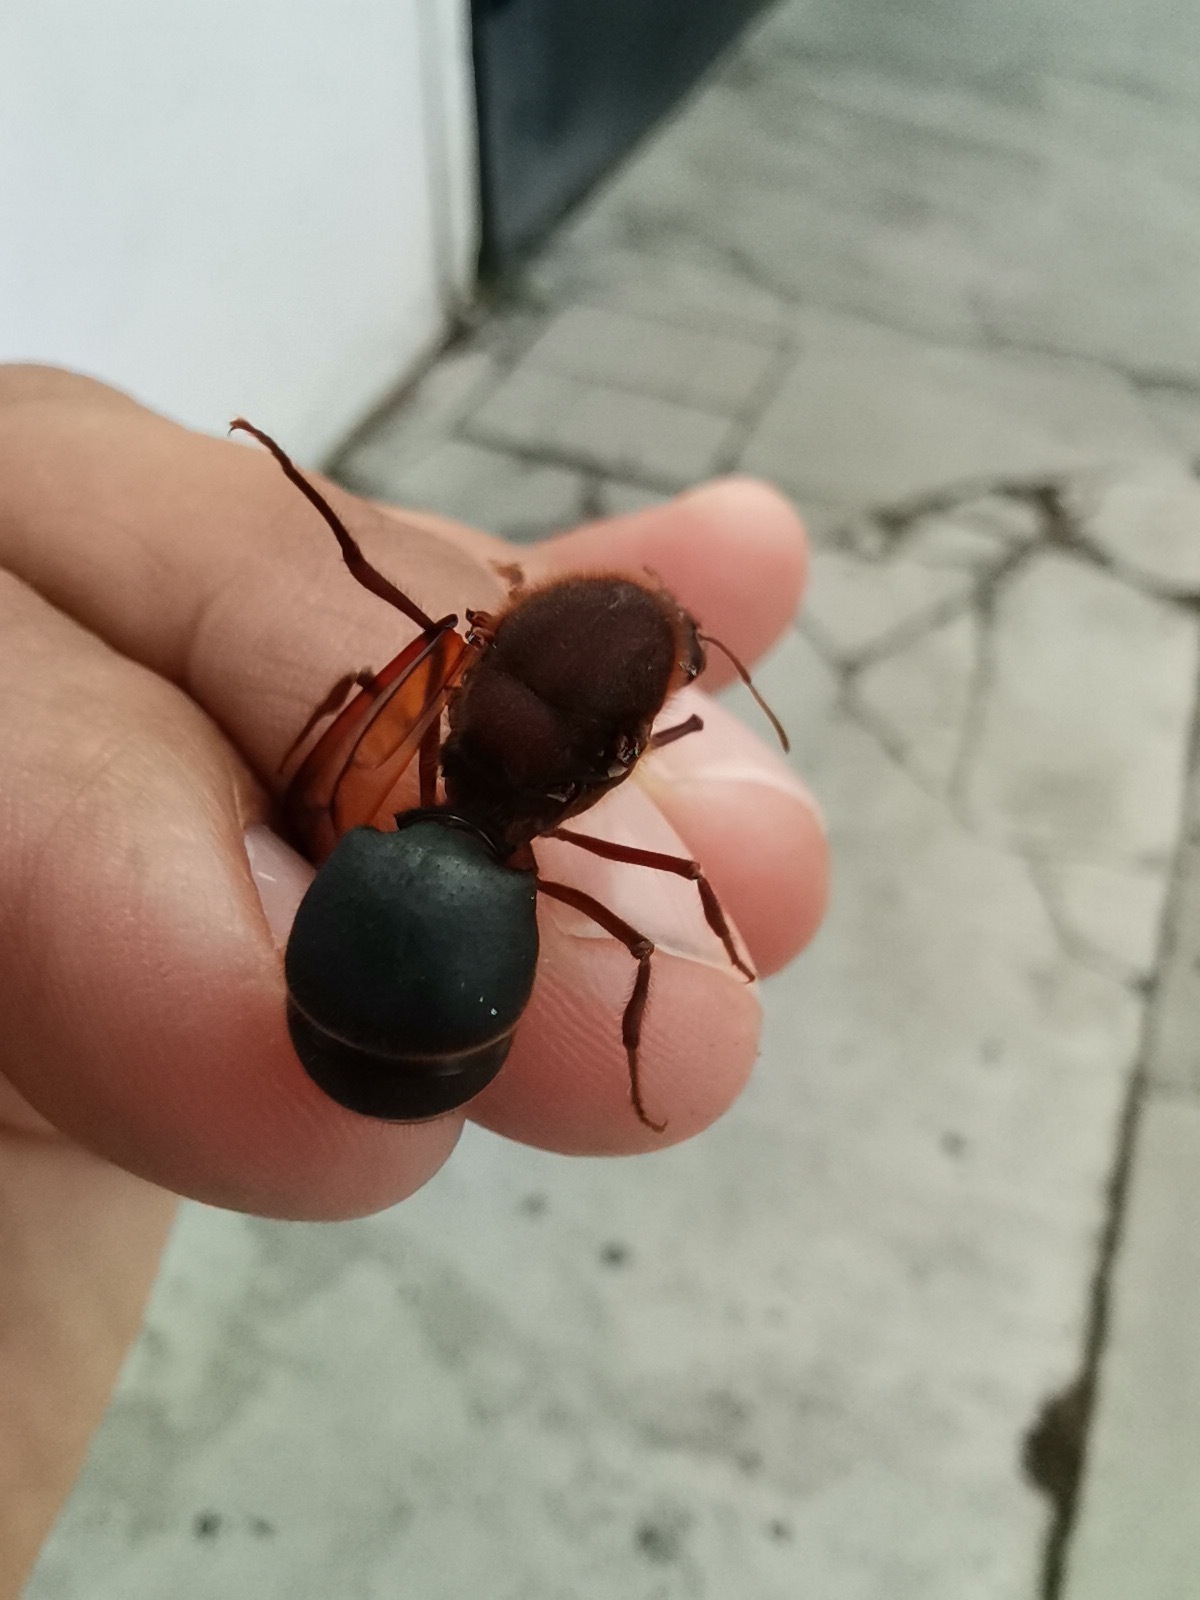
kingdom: Animalia
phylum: Arthropoda
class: Insecta
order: Hymenoptera
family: Formicidae
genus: Atta
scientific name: Atta mexicana
